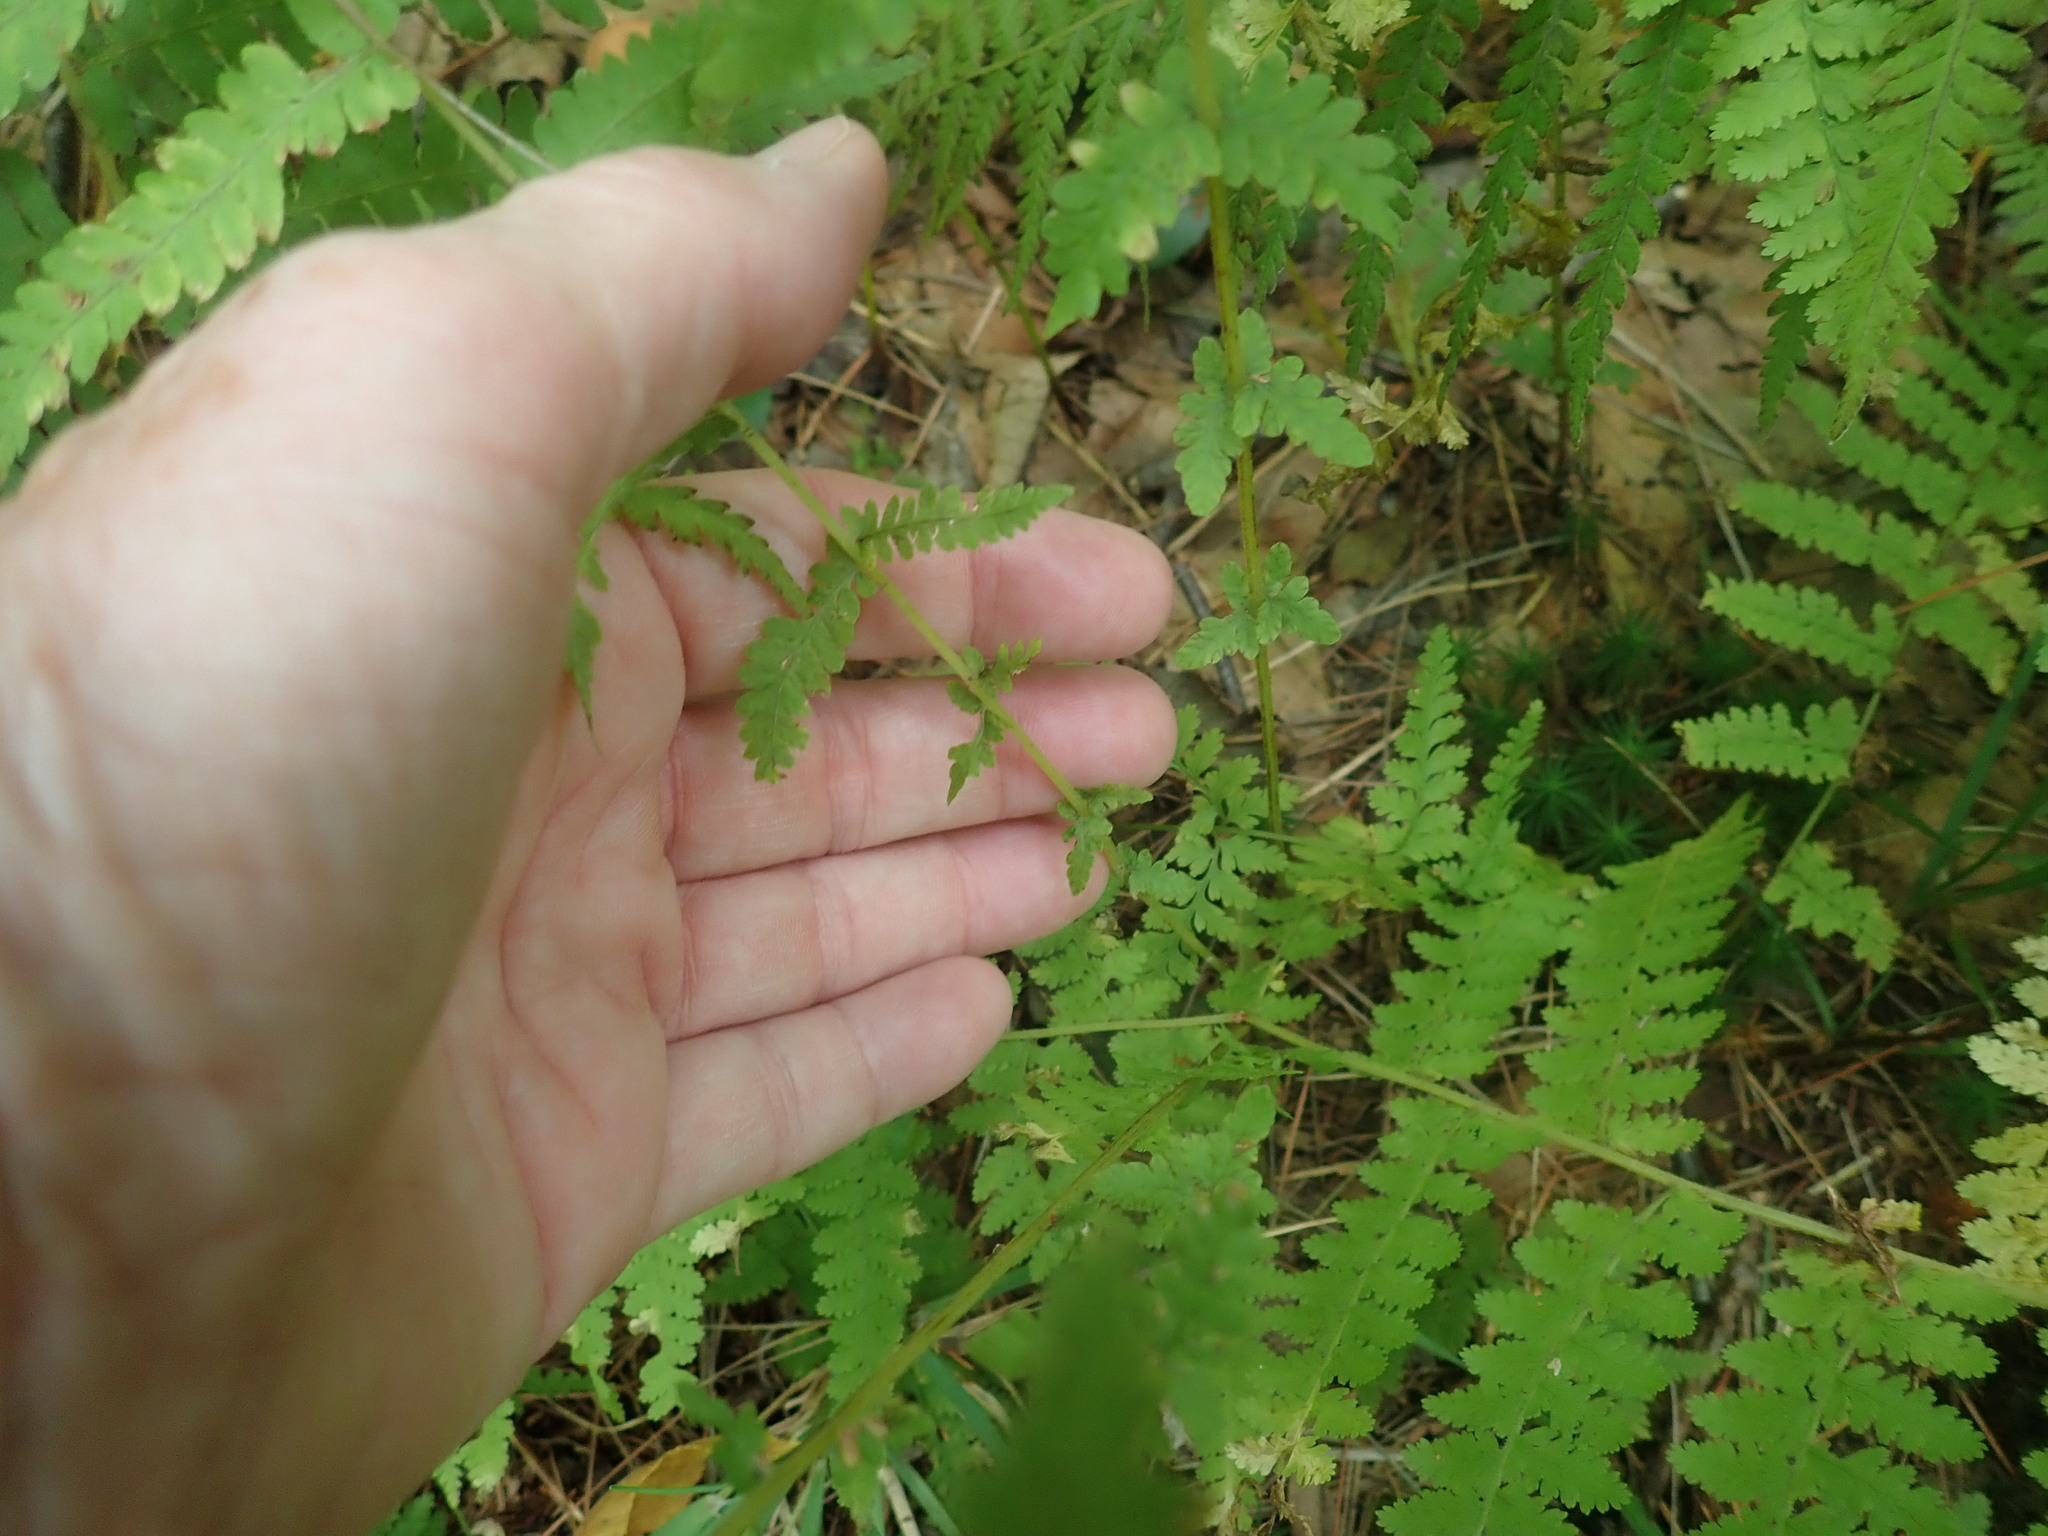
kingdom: Plantae
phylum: Tracheophyta
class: Polypodiopsida
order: Polypodiales
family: Thelypteridaceae
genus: Amauropelta
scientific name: Amauropelta noveboracensis
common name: New york fern
